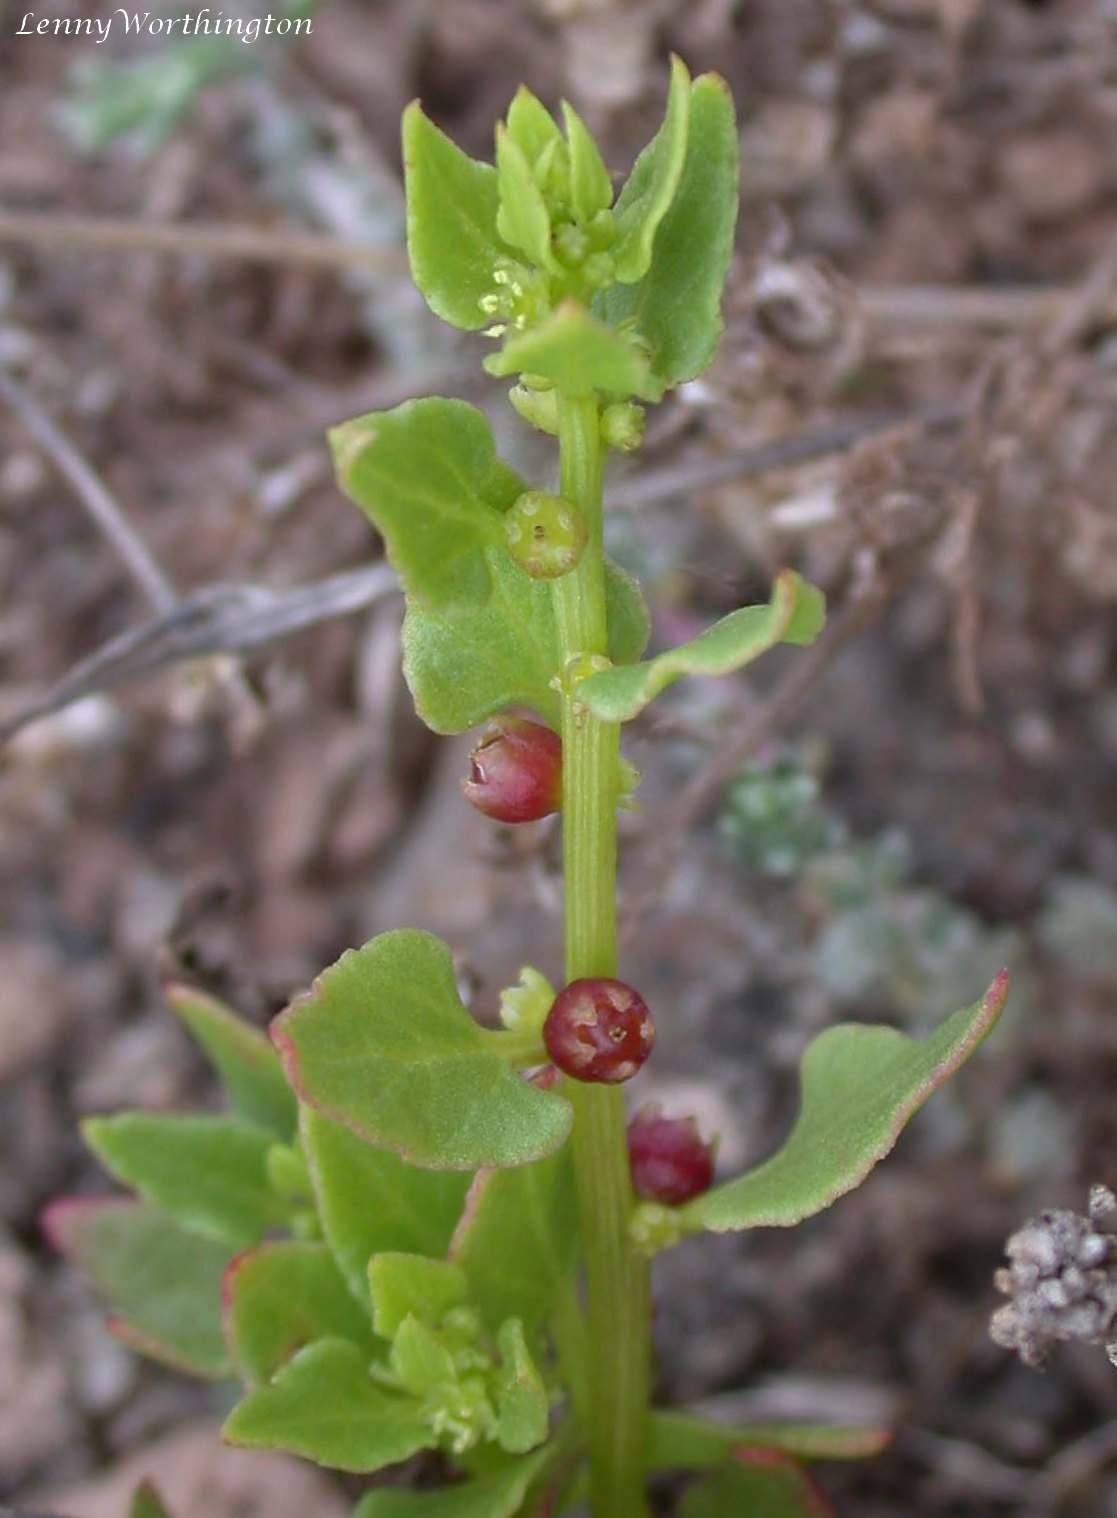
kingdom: Plantae
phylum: Tracheophyta
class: Magnoliopsida
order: Caryophyllales
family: Amaranthaceae
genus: Patellifolia
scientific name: Patellifolia procumbens
